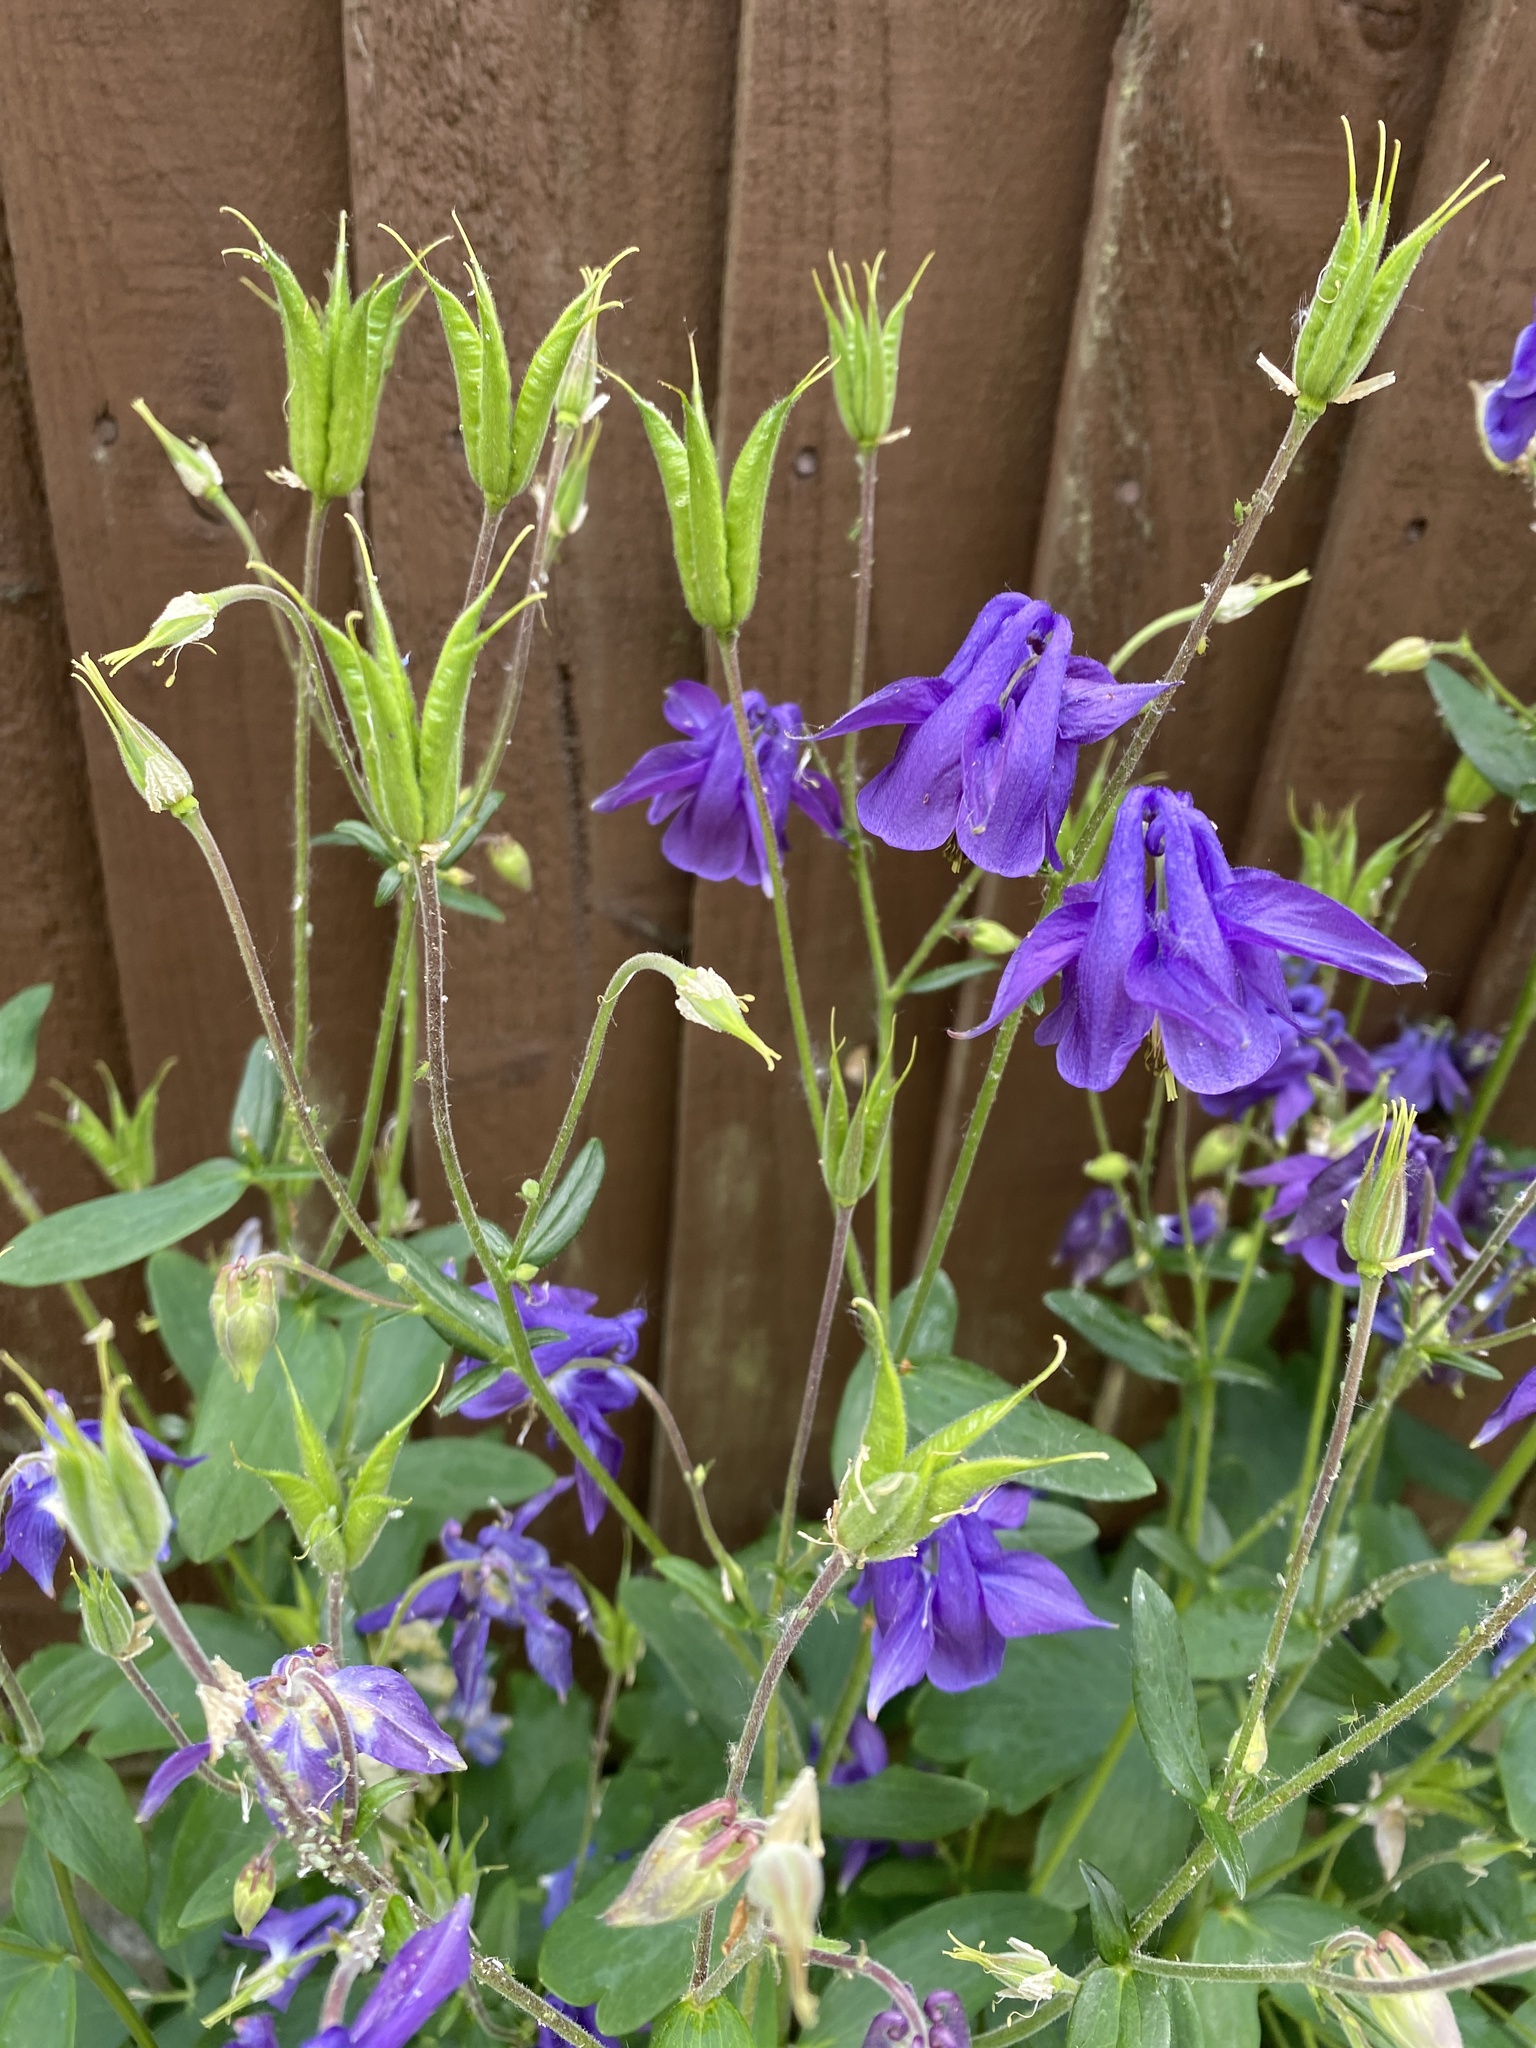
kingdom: Plantae
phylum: Tracheophyta
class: Magnoliopsida
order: Ranunculales
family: Ranunculaceae
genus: Aquilegia
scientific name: Aquilegia vulgaris
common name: Columbine
